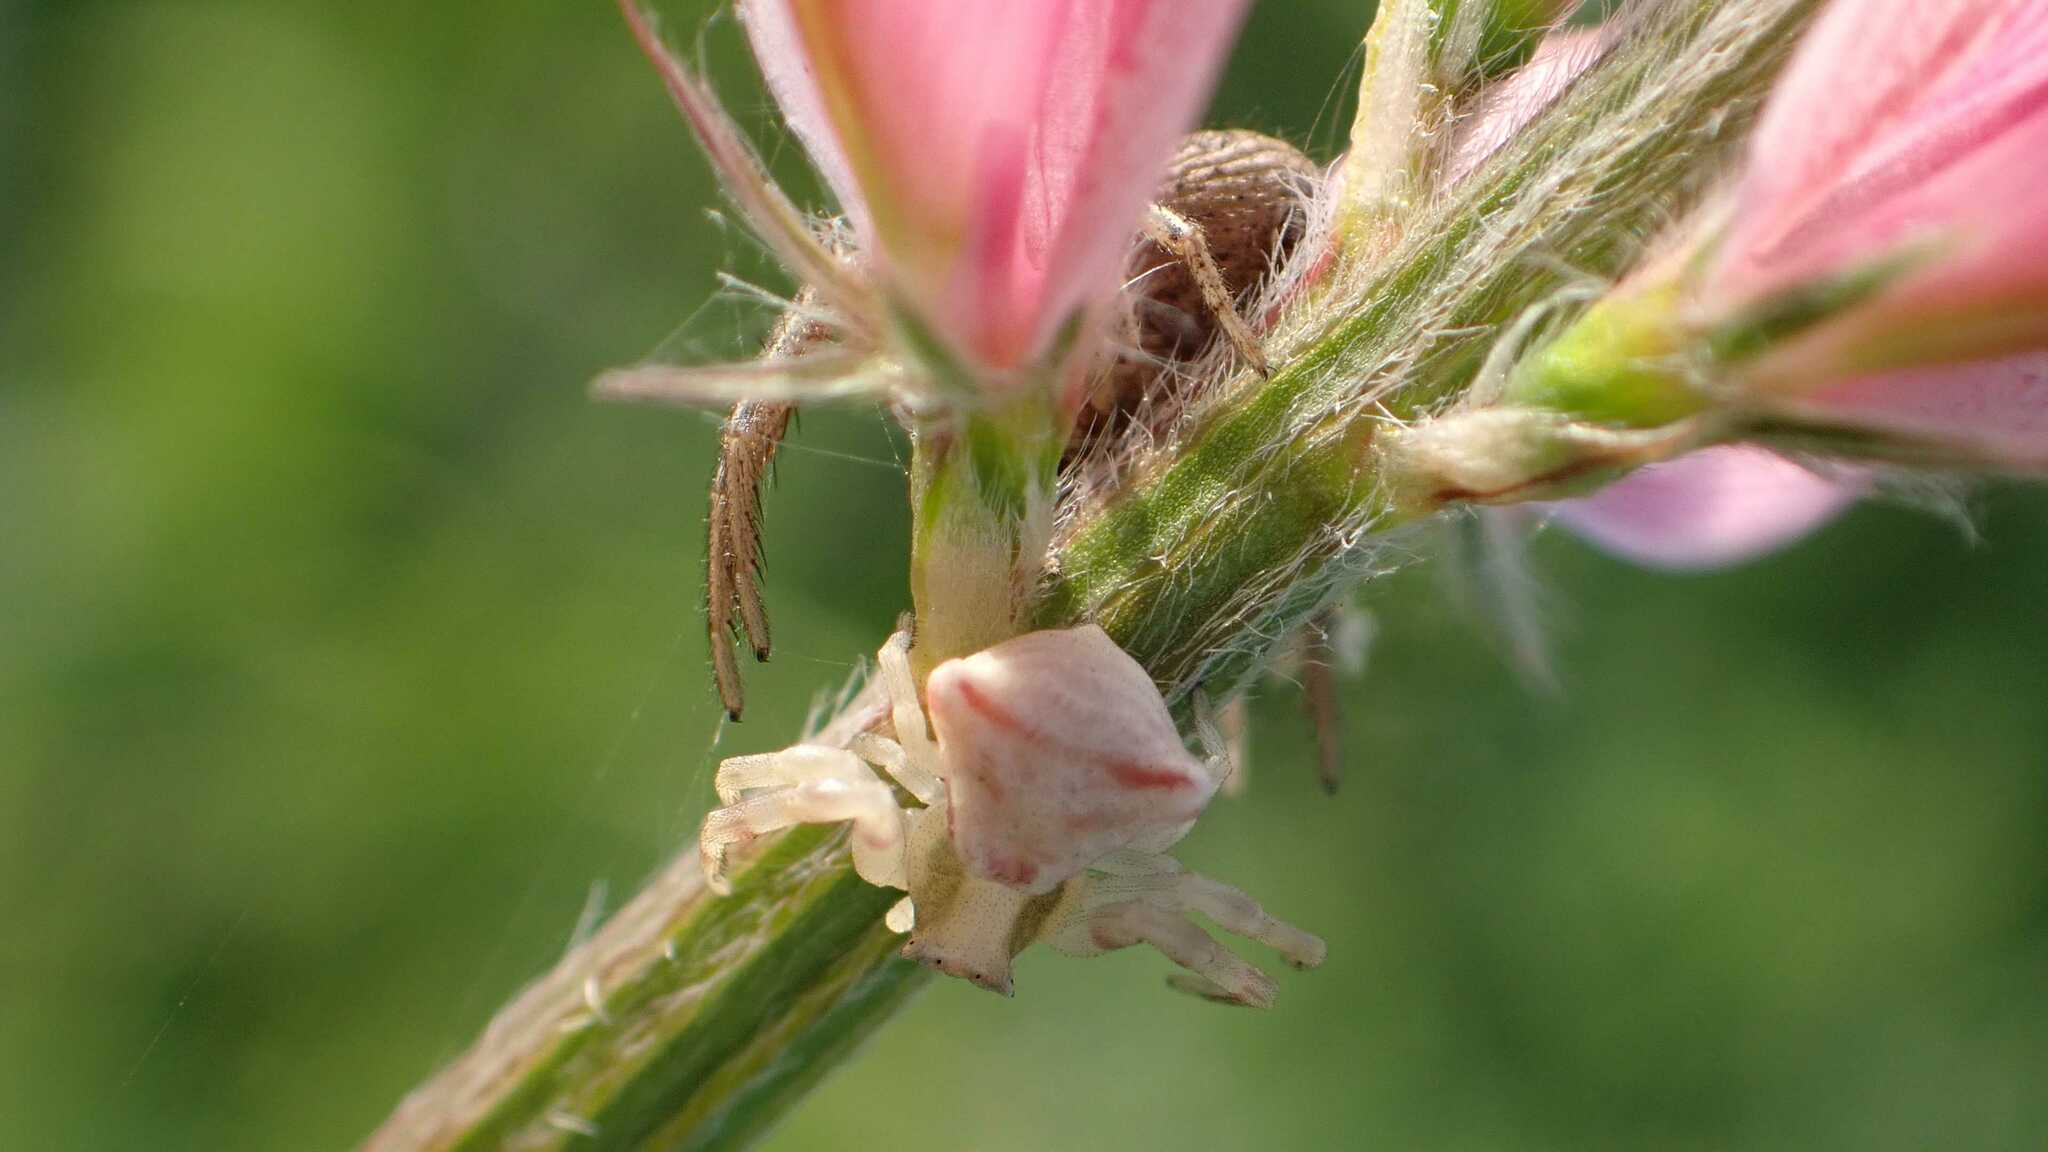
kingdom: Animalia
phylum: Arthropoda
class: Arachnida
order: Araneae
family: Thomisidae
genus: Thomisus
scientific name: Thomisus onustus
